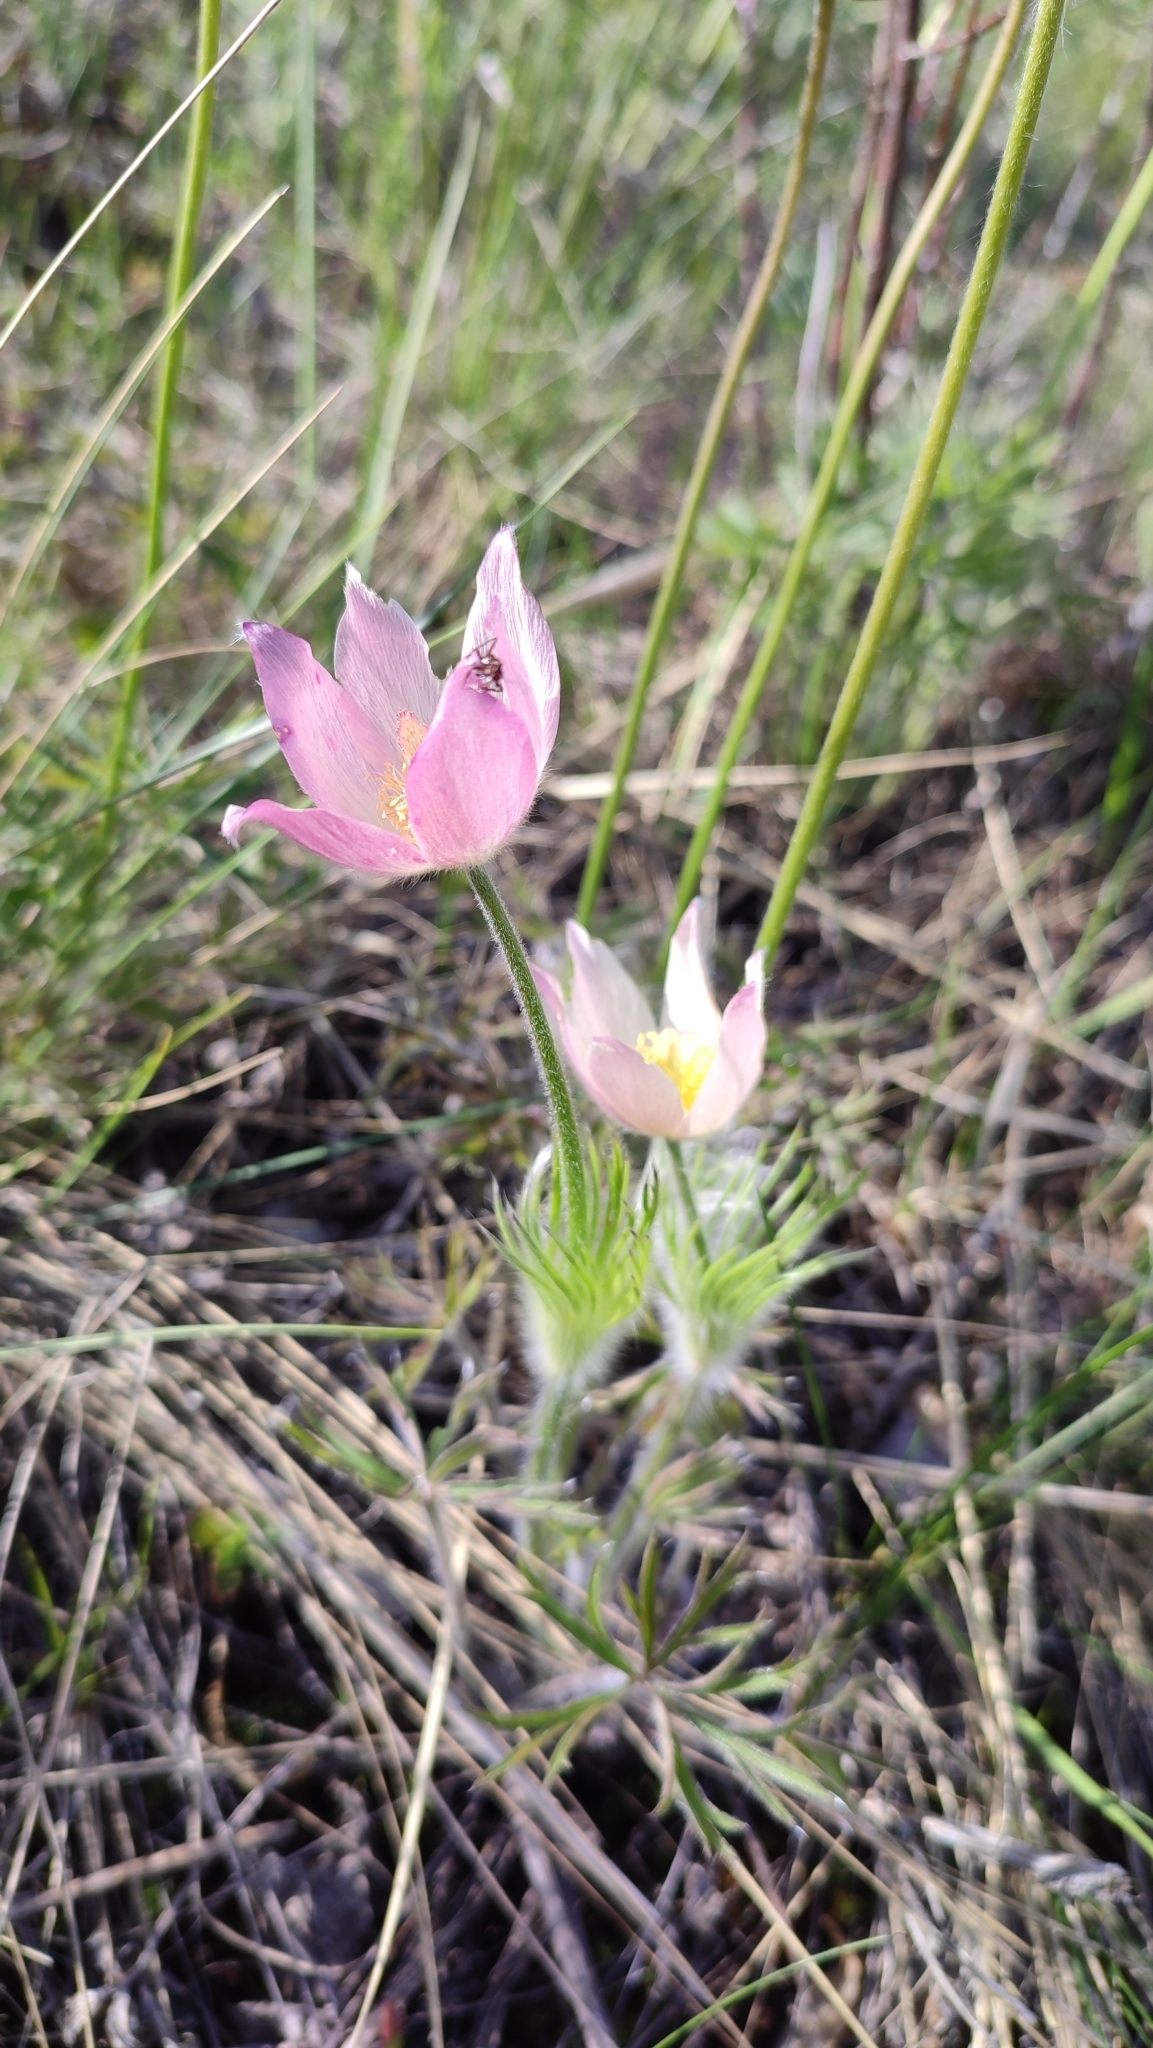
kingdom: Plantae
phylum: Tracheophyta
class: Magnoliopsida
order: Ranunculales
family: Ranunculaceae
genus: Pulsatilla
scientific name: Pulsatilla patens
